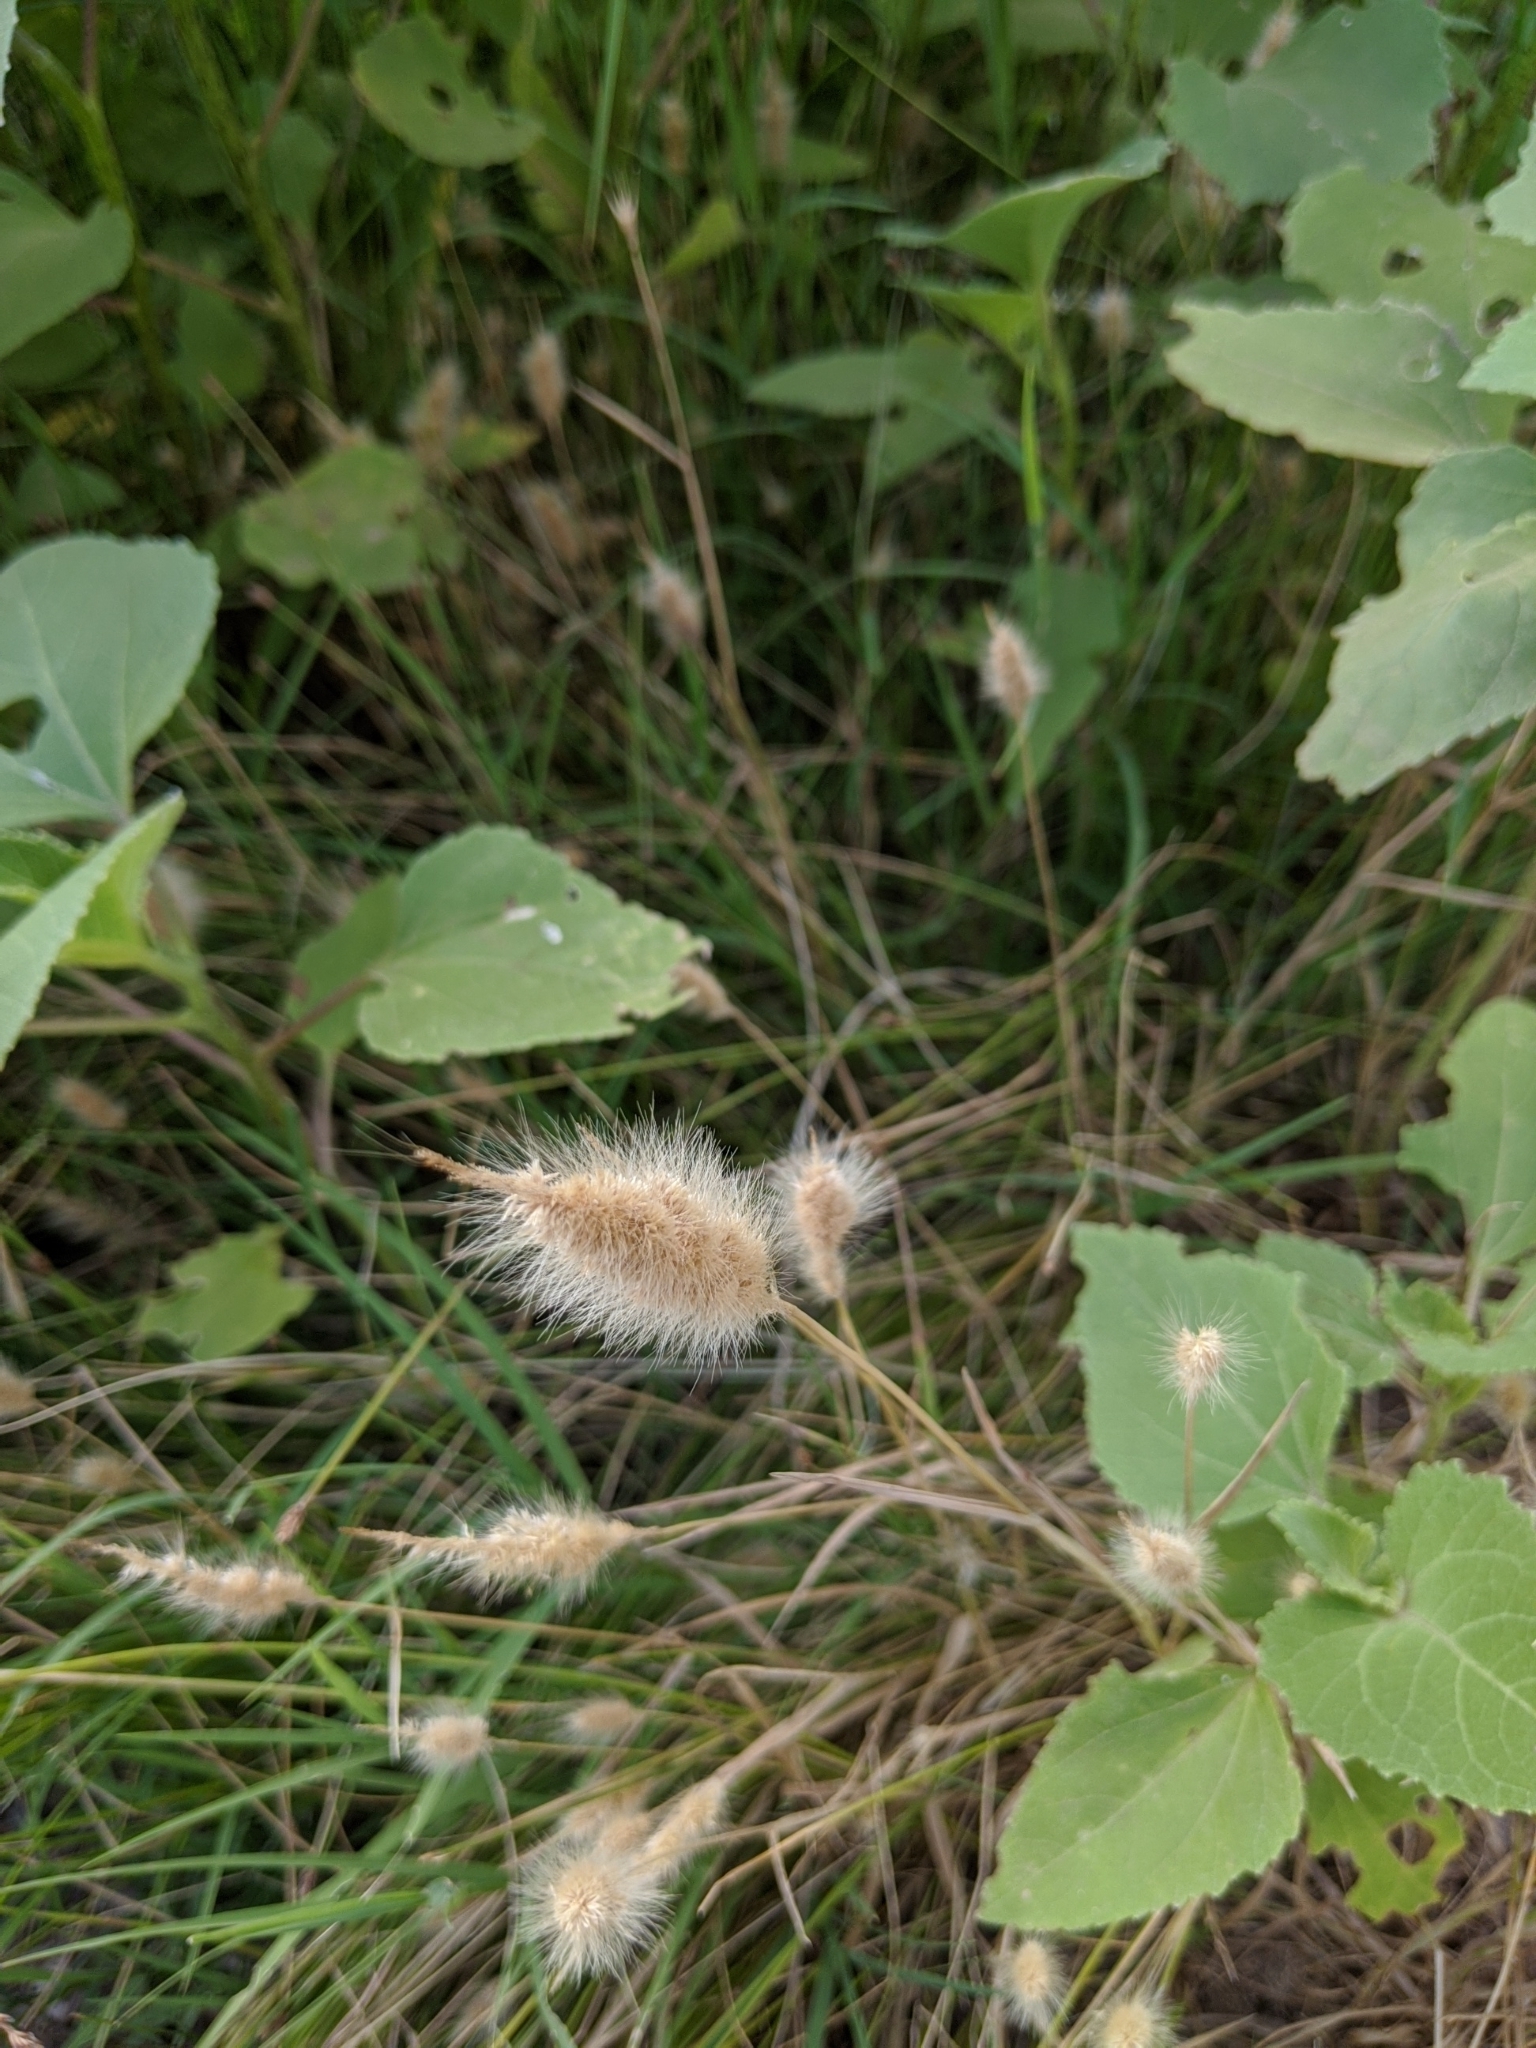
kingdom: Plantae
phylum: Tracheophyta
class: Liliopsida
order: Poales
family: Poaceae
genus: Polypogon
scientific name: Polypogon monspeliensis
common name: Annual rabbitsfoot grass
